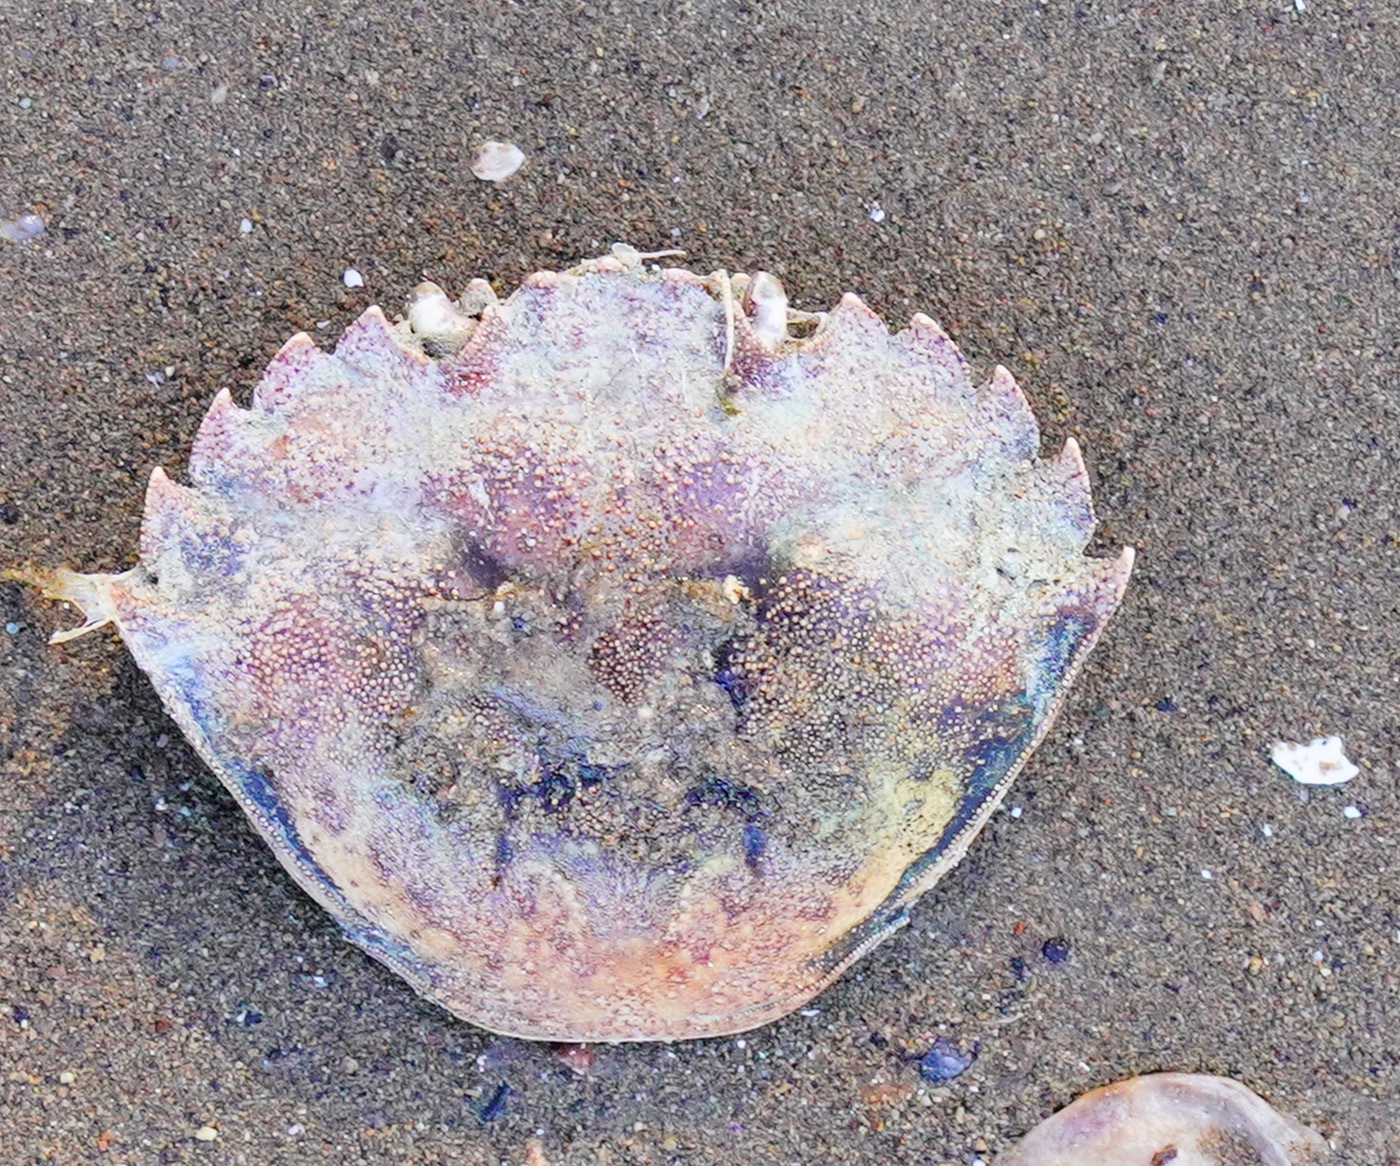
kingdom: Animalia
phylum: Arthropoda
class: Malacostraca
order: Decapoda
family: Carcinidae
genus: Carcinus
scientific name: Carcinus maenas
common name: European green crab
